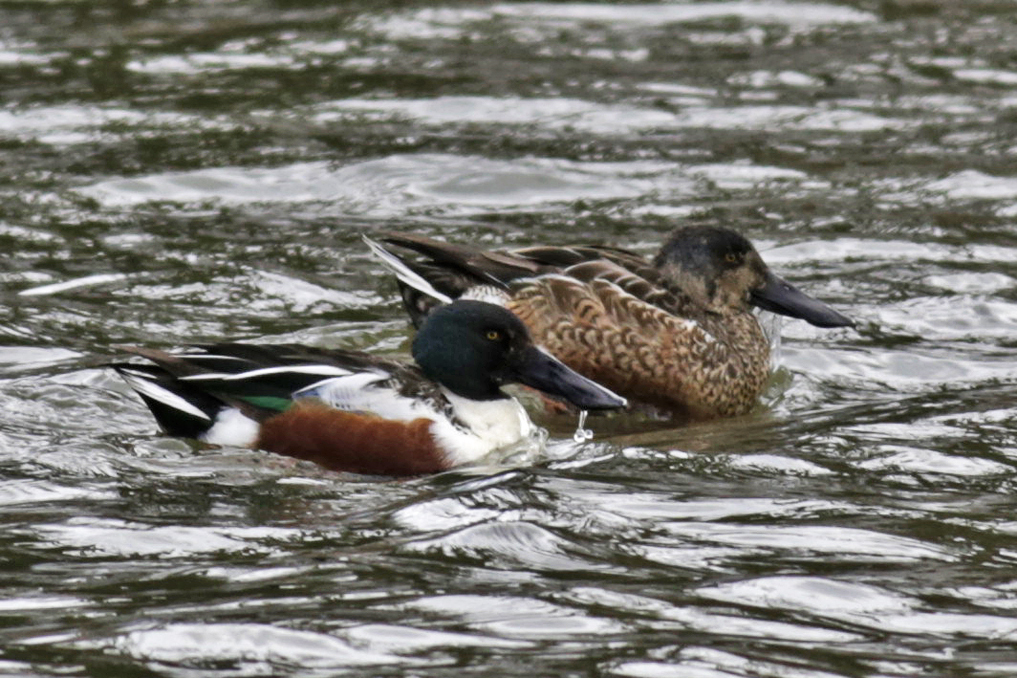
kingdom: Animalia
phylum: Chordata
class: Aves
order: Anseriformes
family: Anatidae
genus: Spatula
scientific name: Spatula clypeata
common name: Northern shoveler
